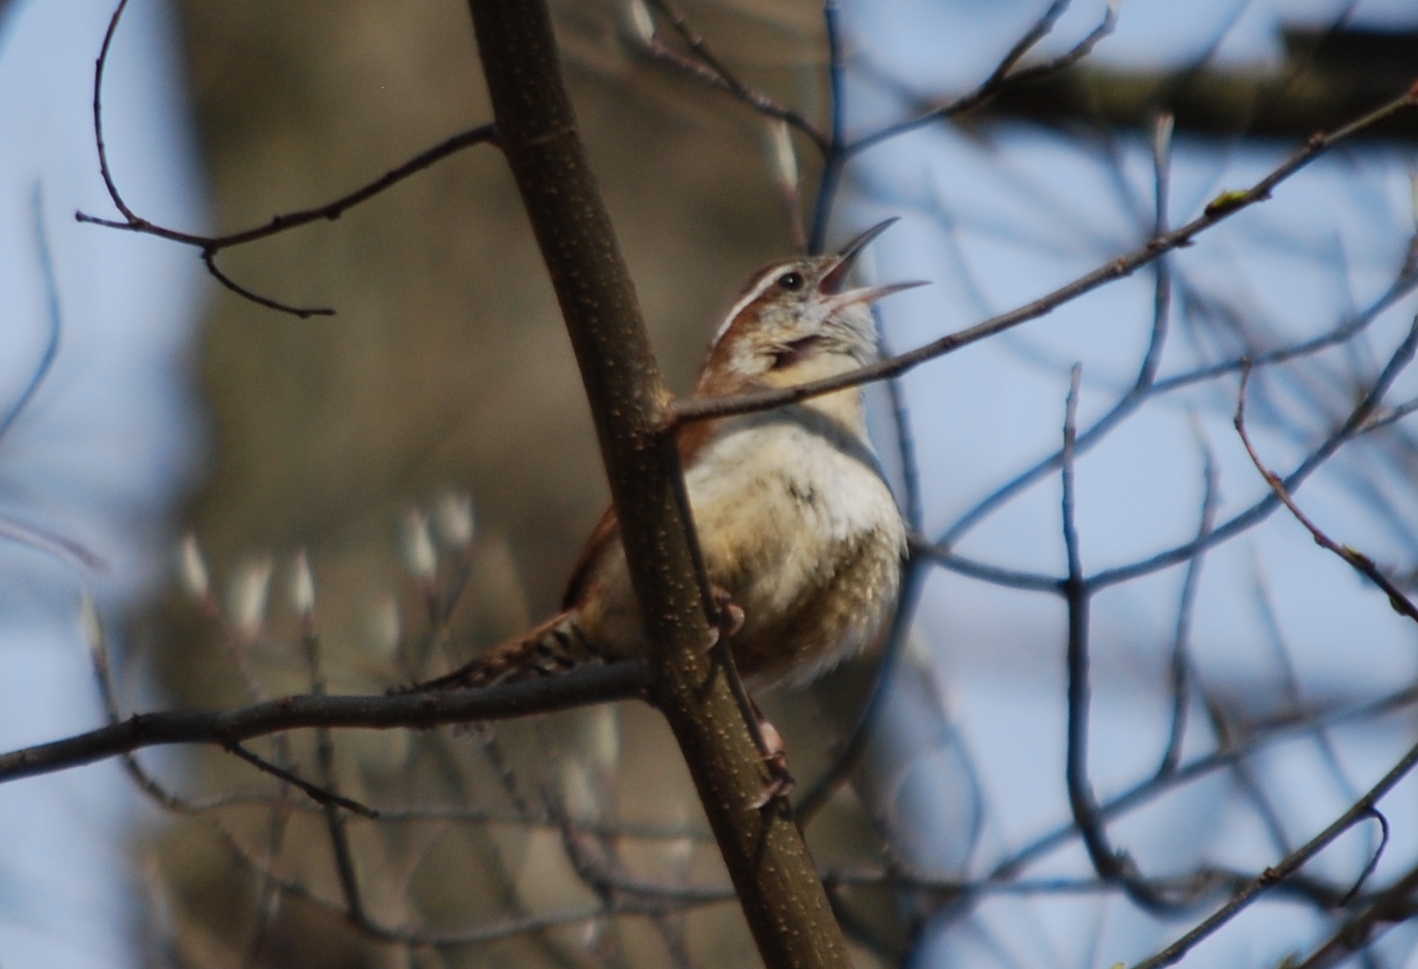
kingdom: Animalia
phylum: Chordata
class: Aves
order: Passeriformes
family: Troglodytidae
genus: Thryothorus
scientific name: Thryothorus ludovicianus
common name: Carolina wren
